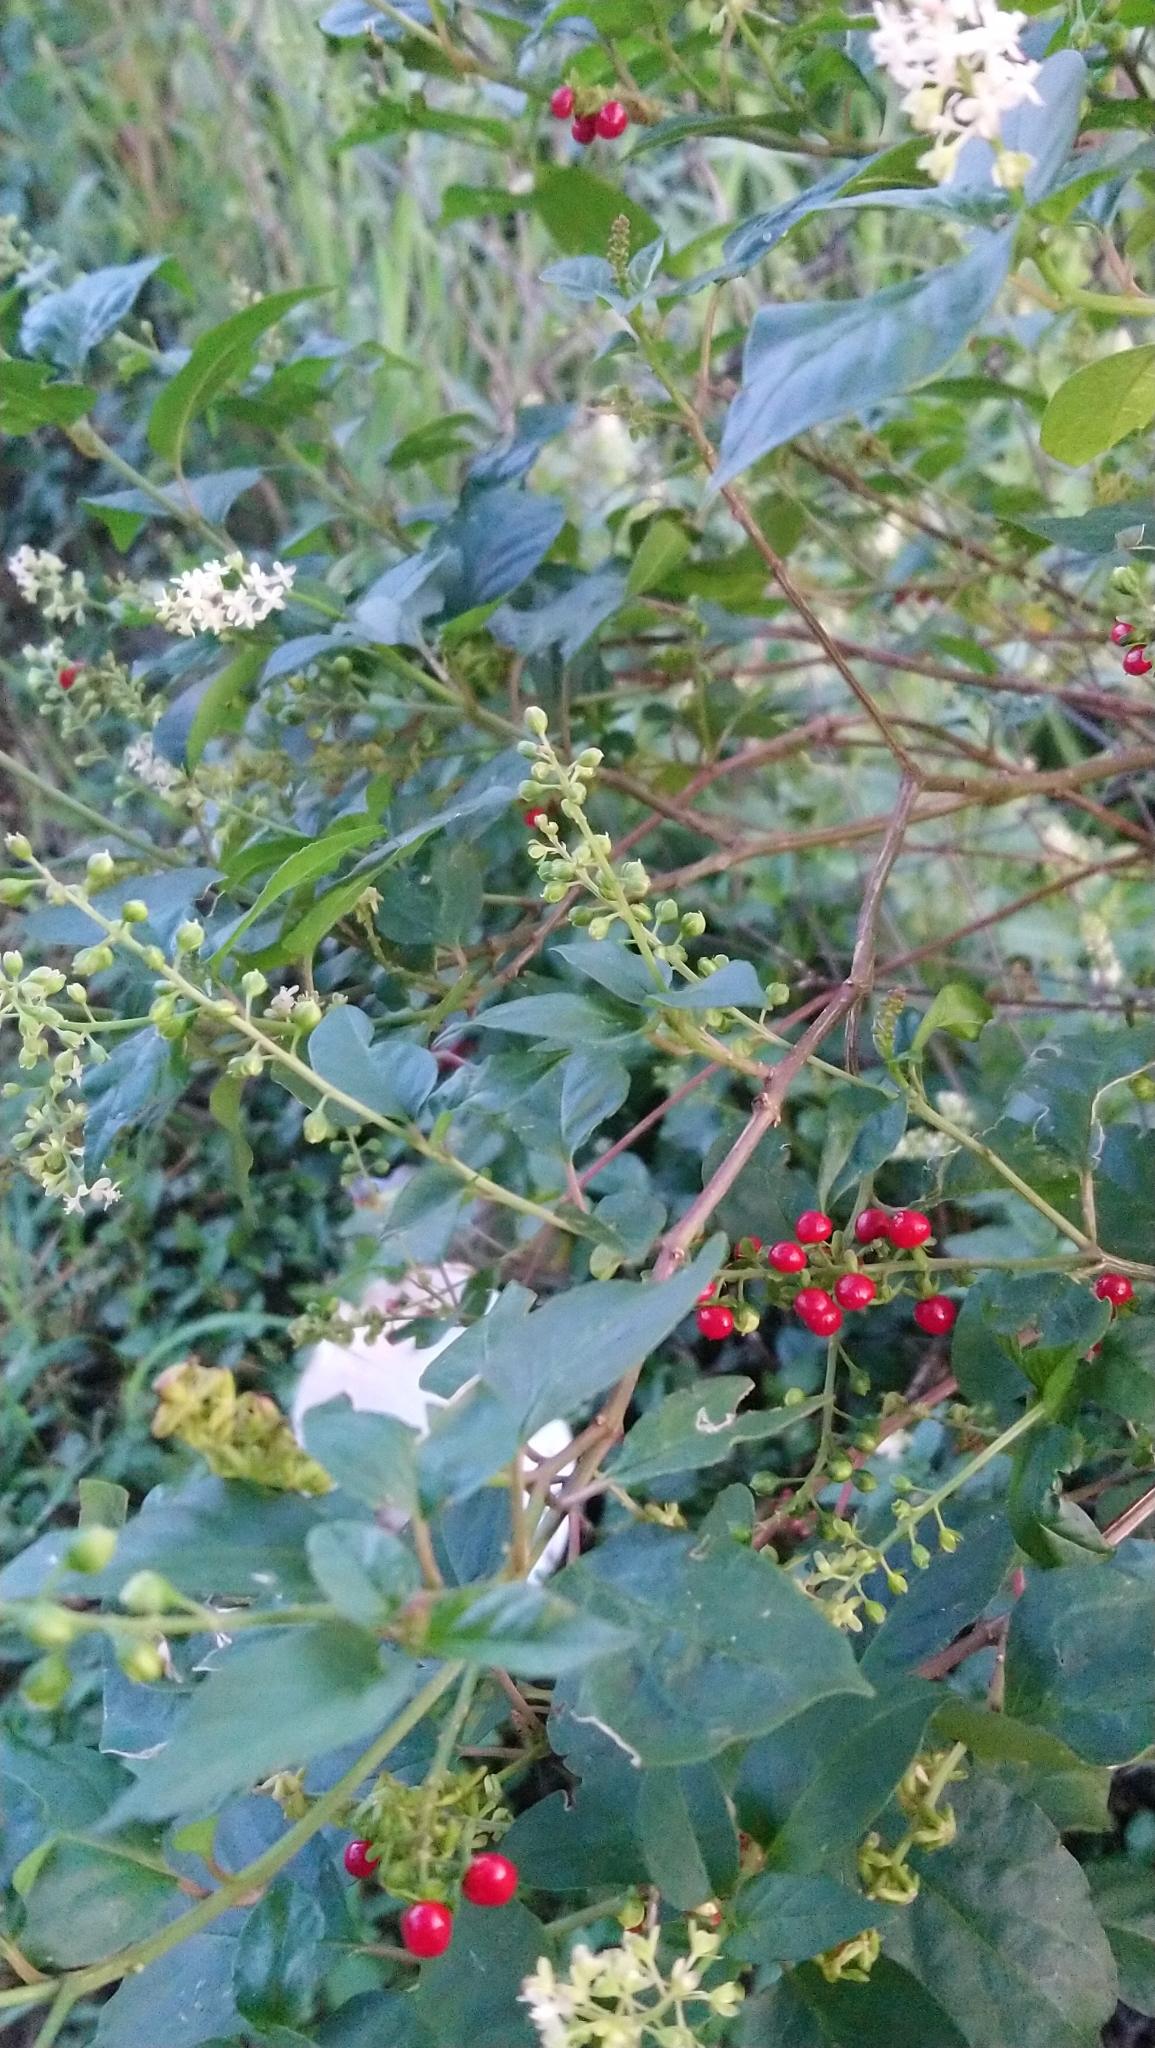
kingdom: Plantae
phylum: Tracheophyta
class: Magnoliopsida
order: Caryophyllales
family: Phytolaccaceae
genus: Rivina
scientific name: Rivina humilis
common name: Rougeplant
